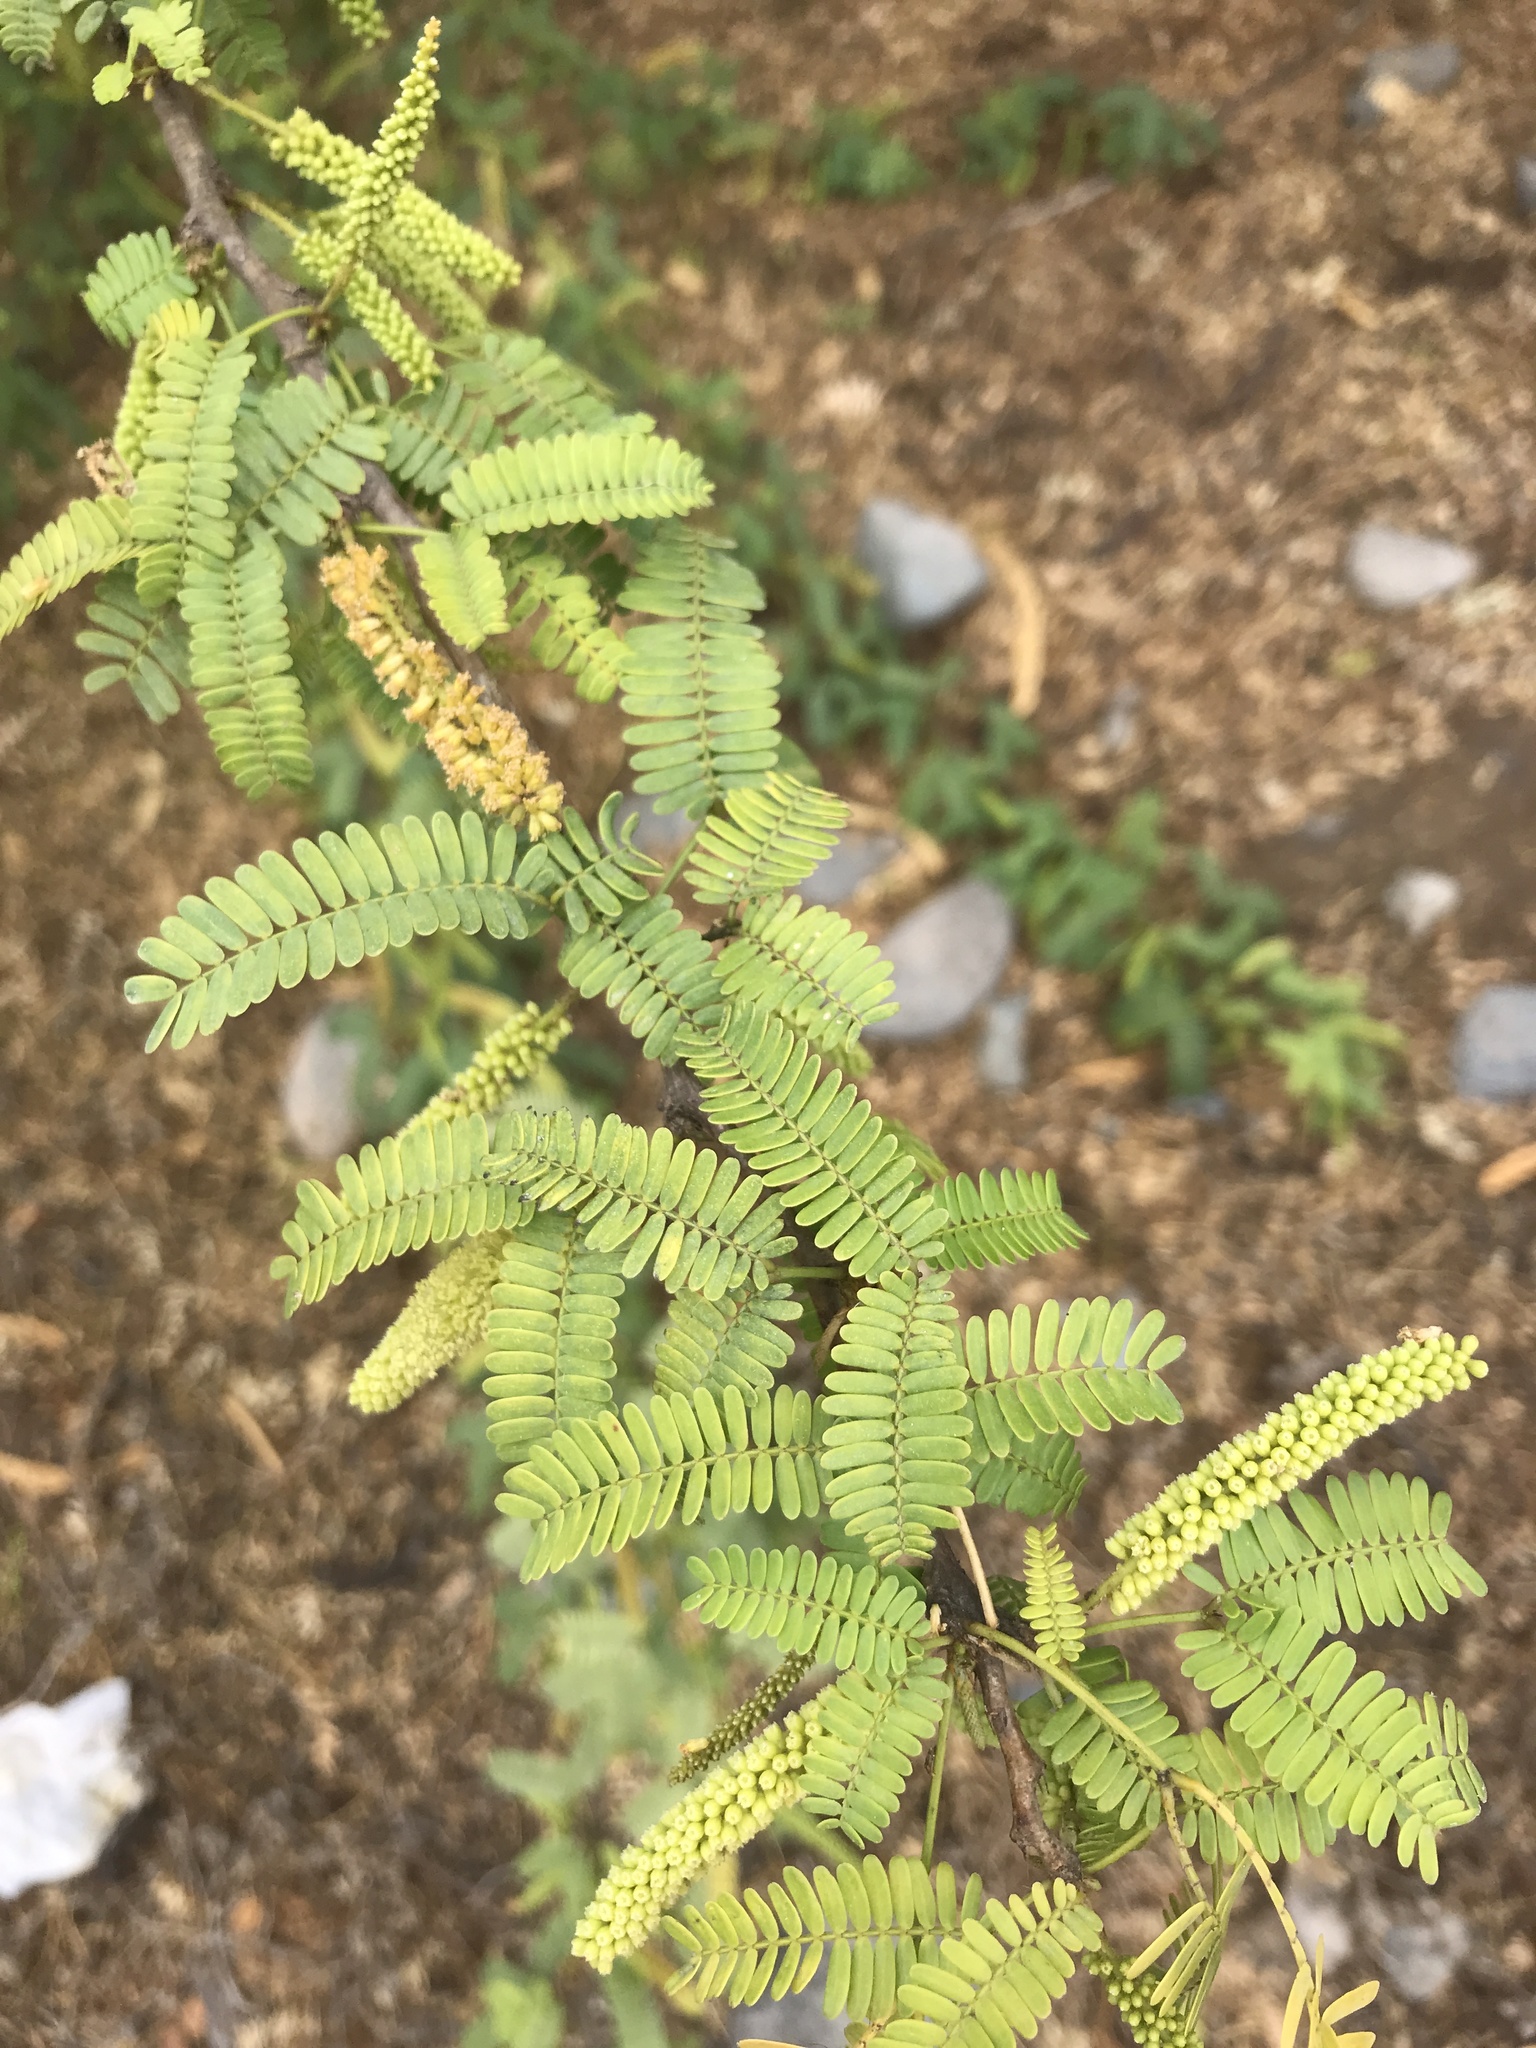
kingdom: Plantae
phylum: Tracheophyta
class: Magnoliopsida
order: Fabales
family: Fabaceae
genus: Prosopis
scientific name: Prosopis juliflora
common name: Mesquite
